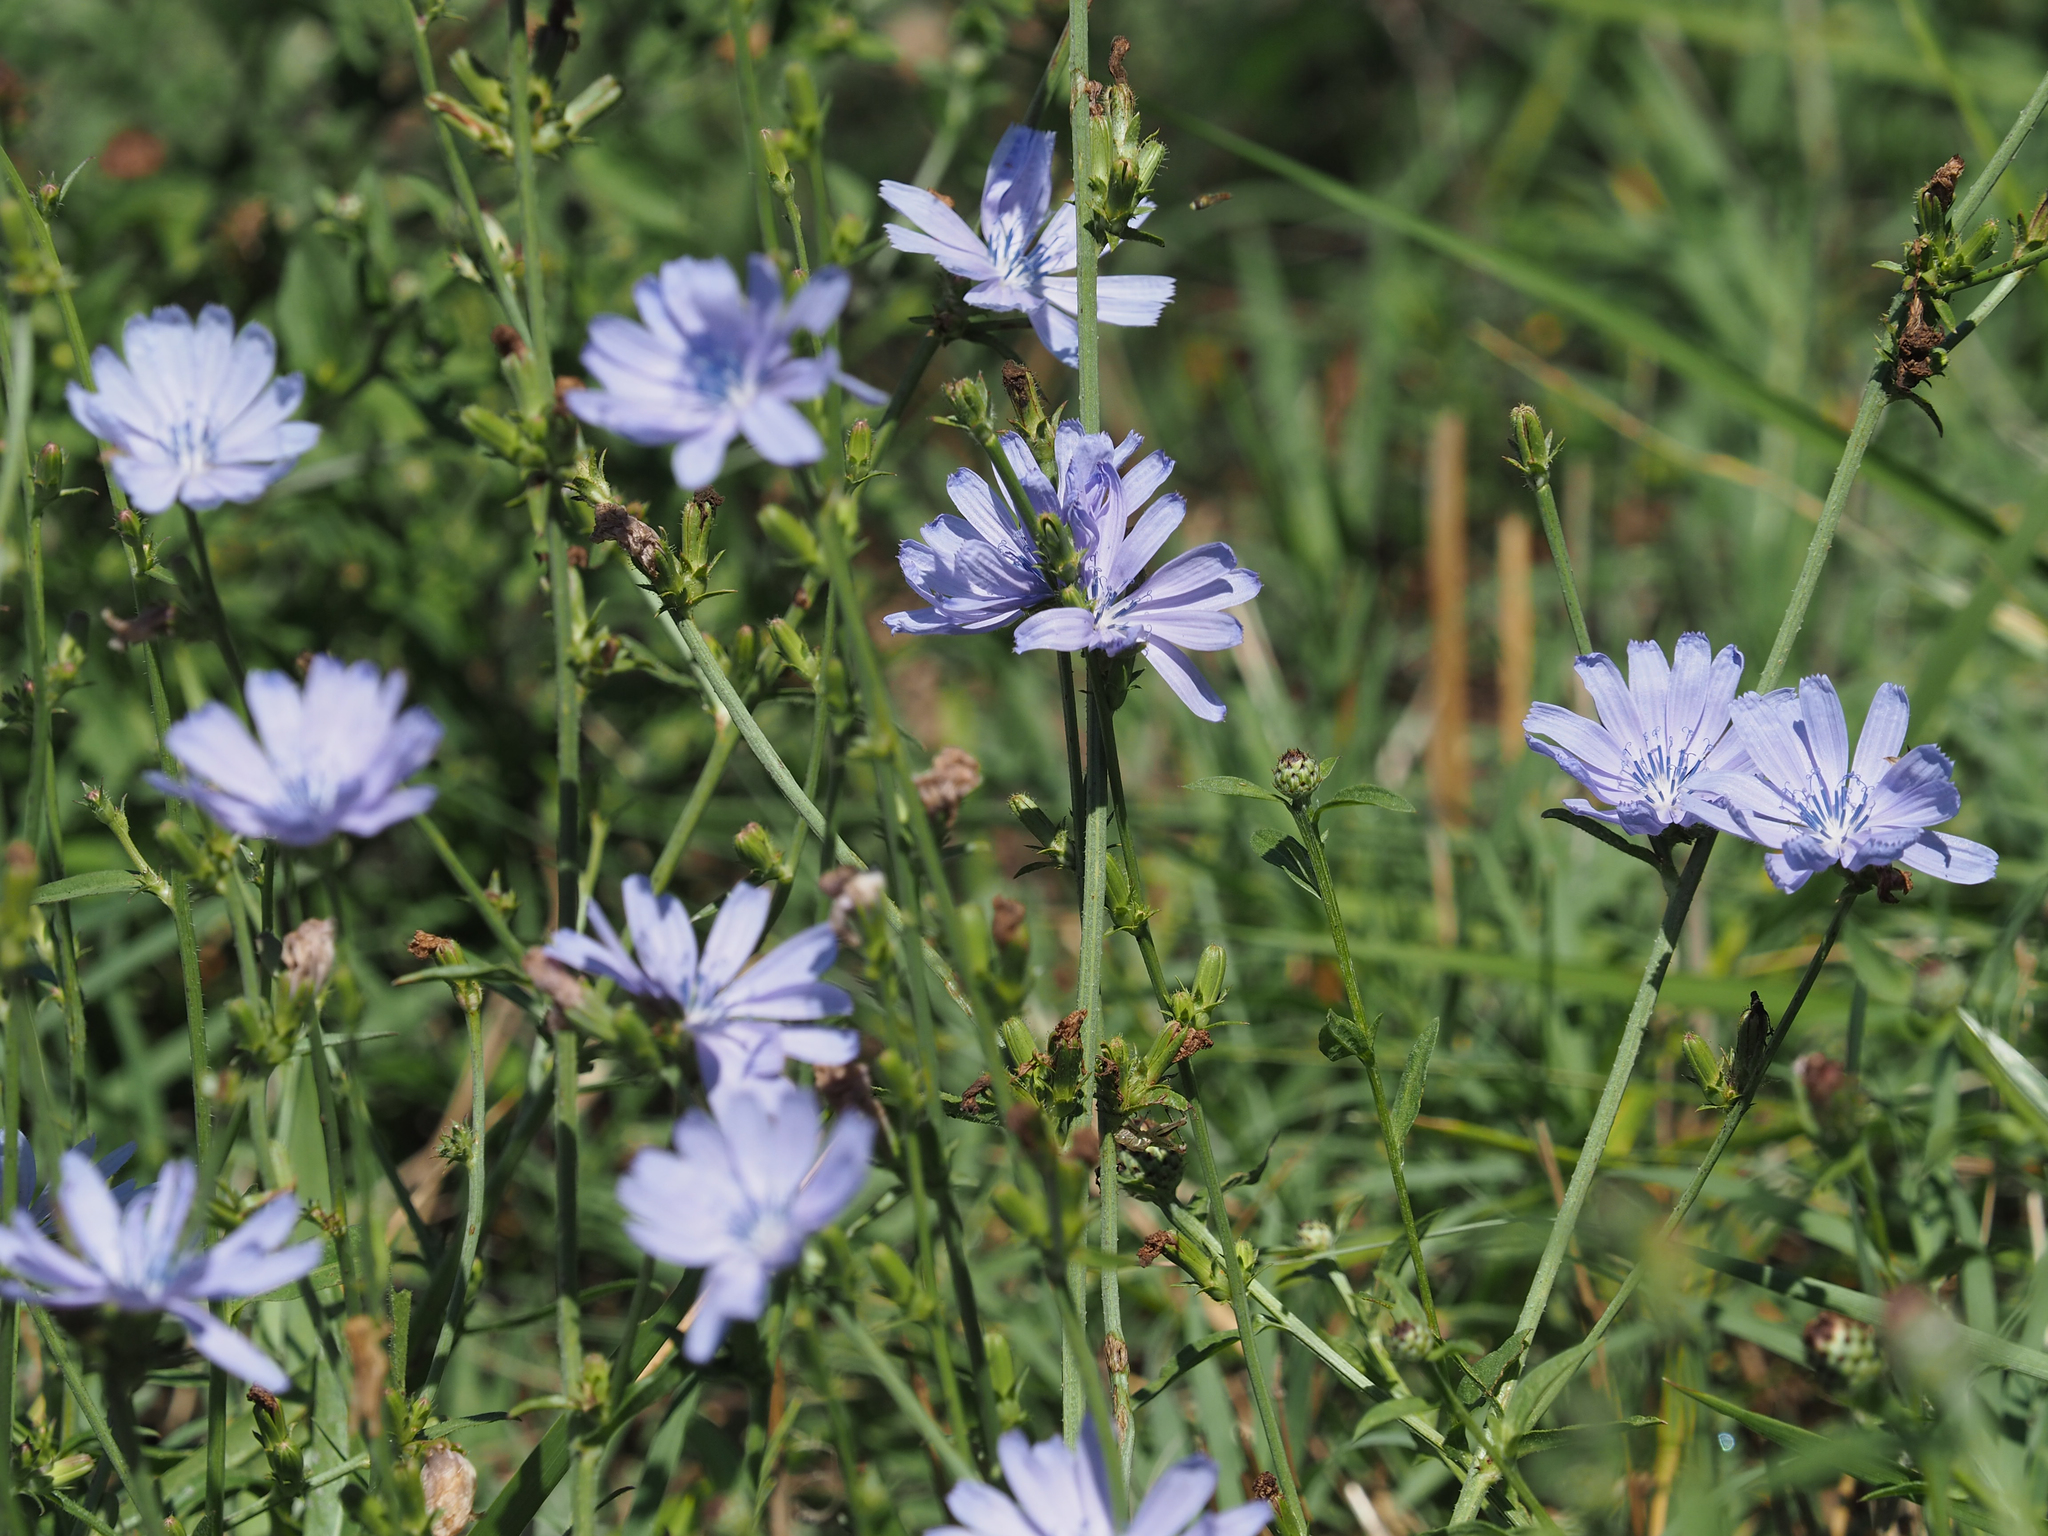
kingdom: Plantae
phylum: Tracheophyta
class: Magnoliopsida
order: Asterales
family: Asteraceae
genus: Cichorium
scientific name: Cichorium intybus
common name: Chicory
